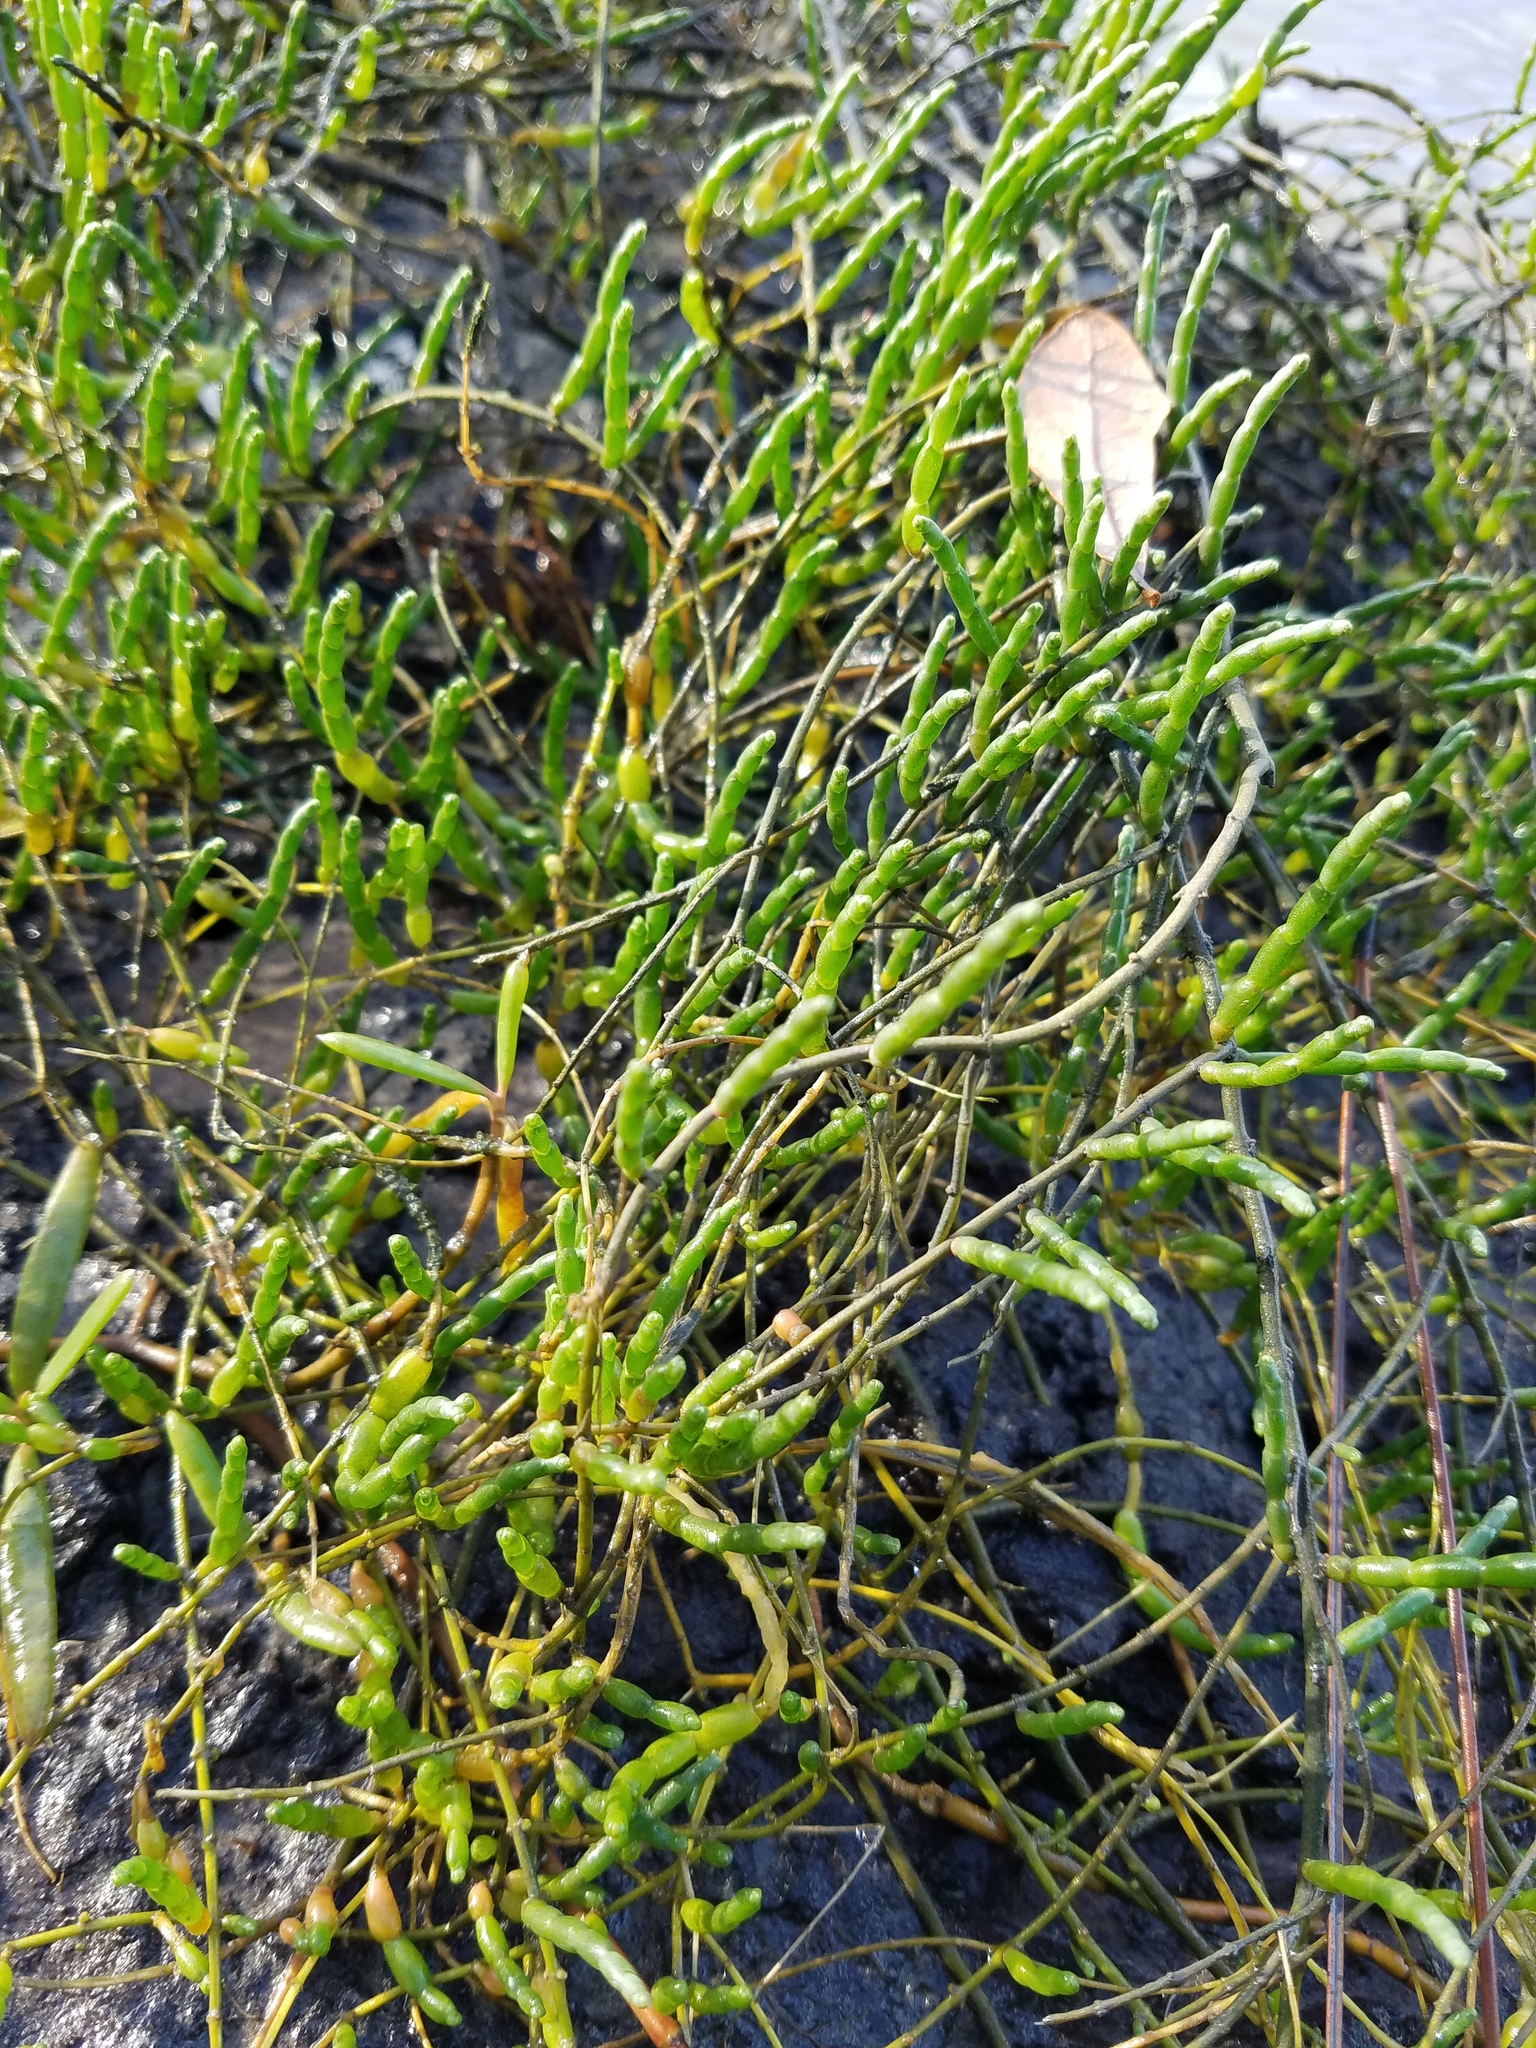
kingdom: Plantae
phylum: Tracheophyta
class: Magnoliopsida
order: Caryophyllales
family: Amaranthaceae
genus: Salicornia
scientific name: Salicornia ambigua
